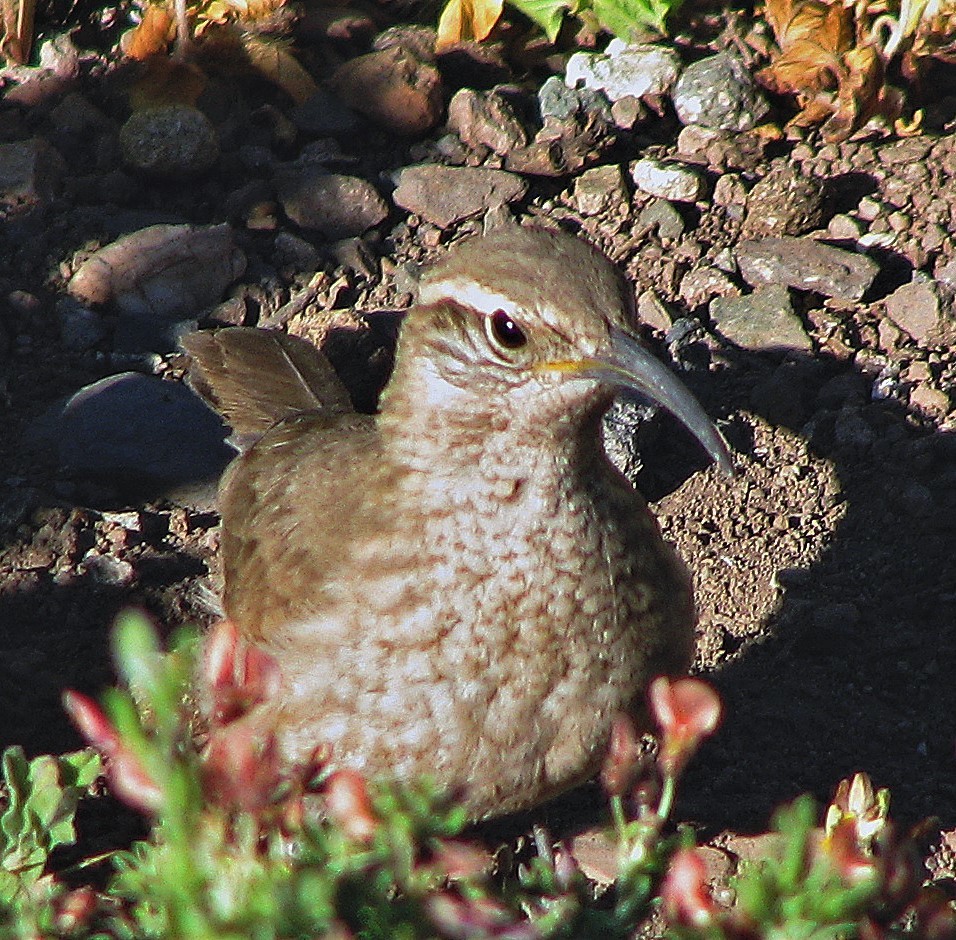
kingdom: Animalia
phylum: Chordata
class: Aves
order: Passeriformes
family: Furnariidae
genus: Upucerthia
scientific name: Upucerthia dumetaria
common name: Scale-throated earthcreeper
